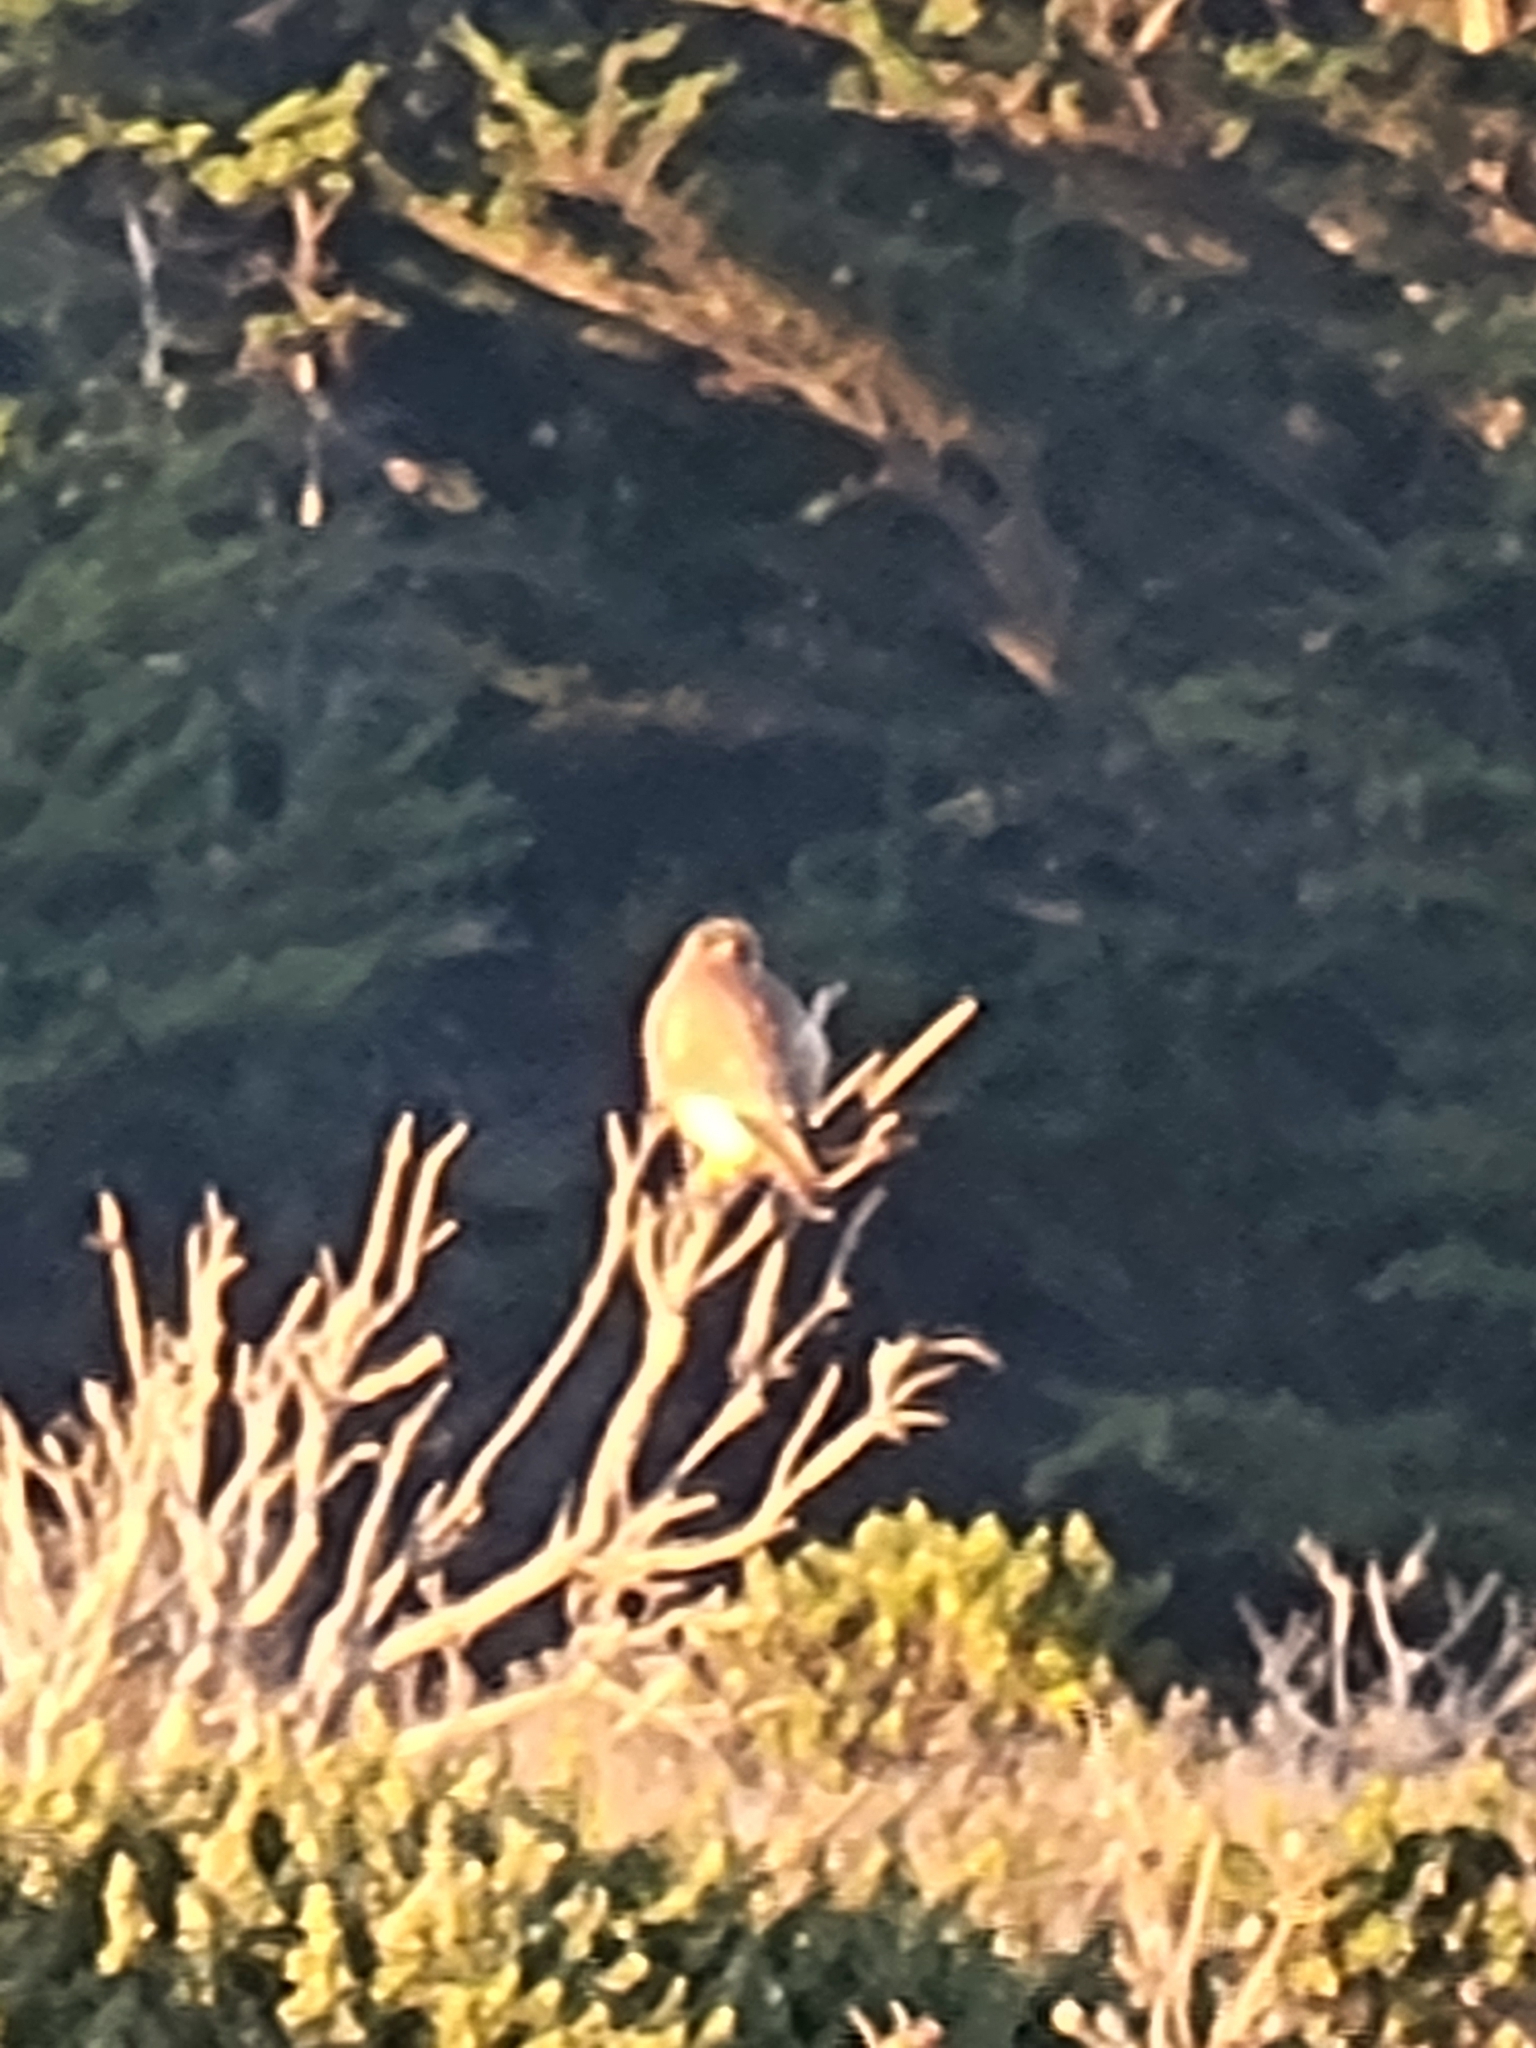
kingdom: Animalia
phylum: Chordata
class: Aves
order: Falconiformes
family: Falconidae
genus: Falco
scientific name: Falco sparverius
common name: American kestrel
